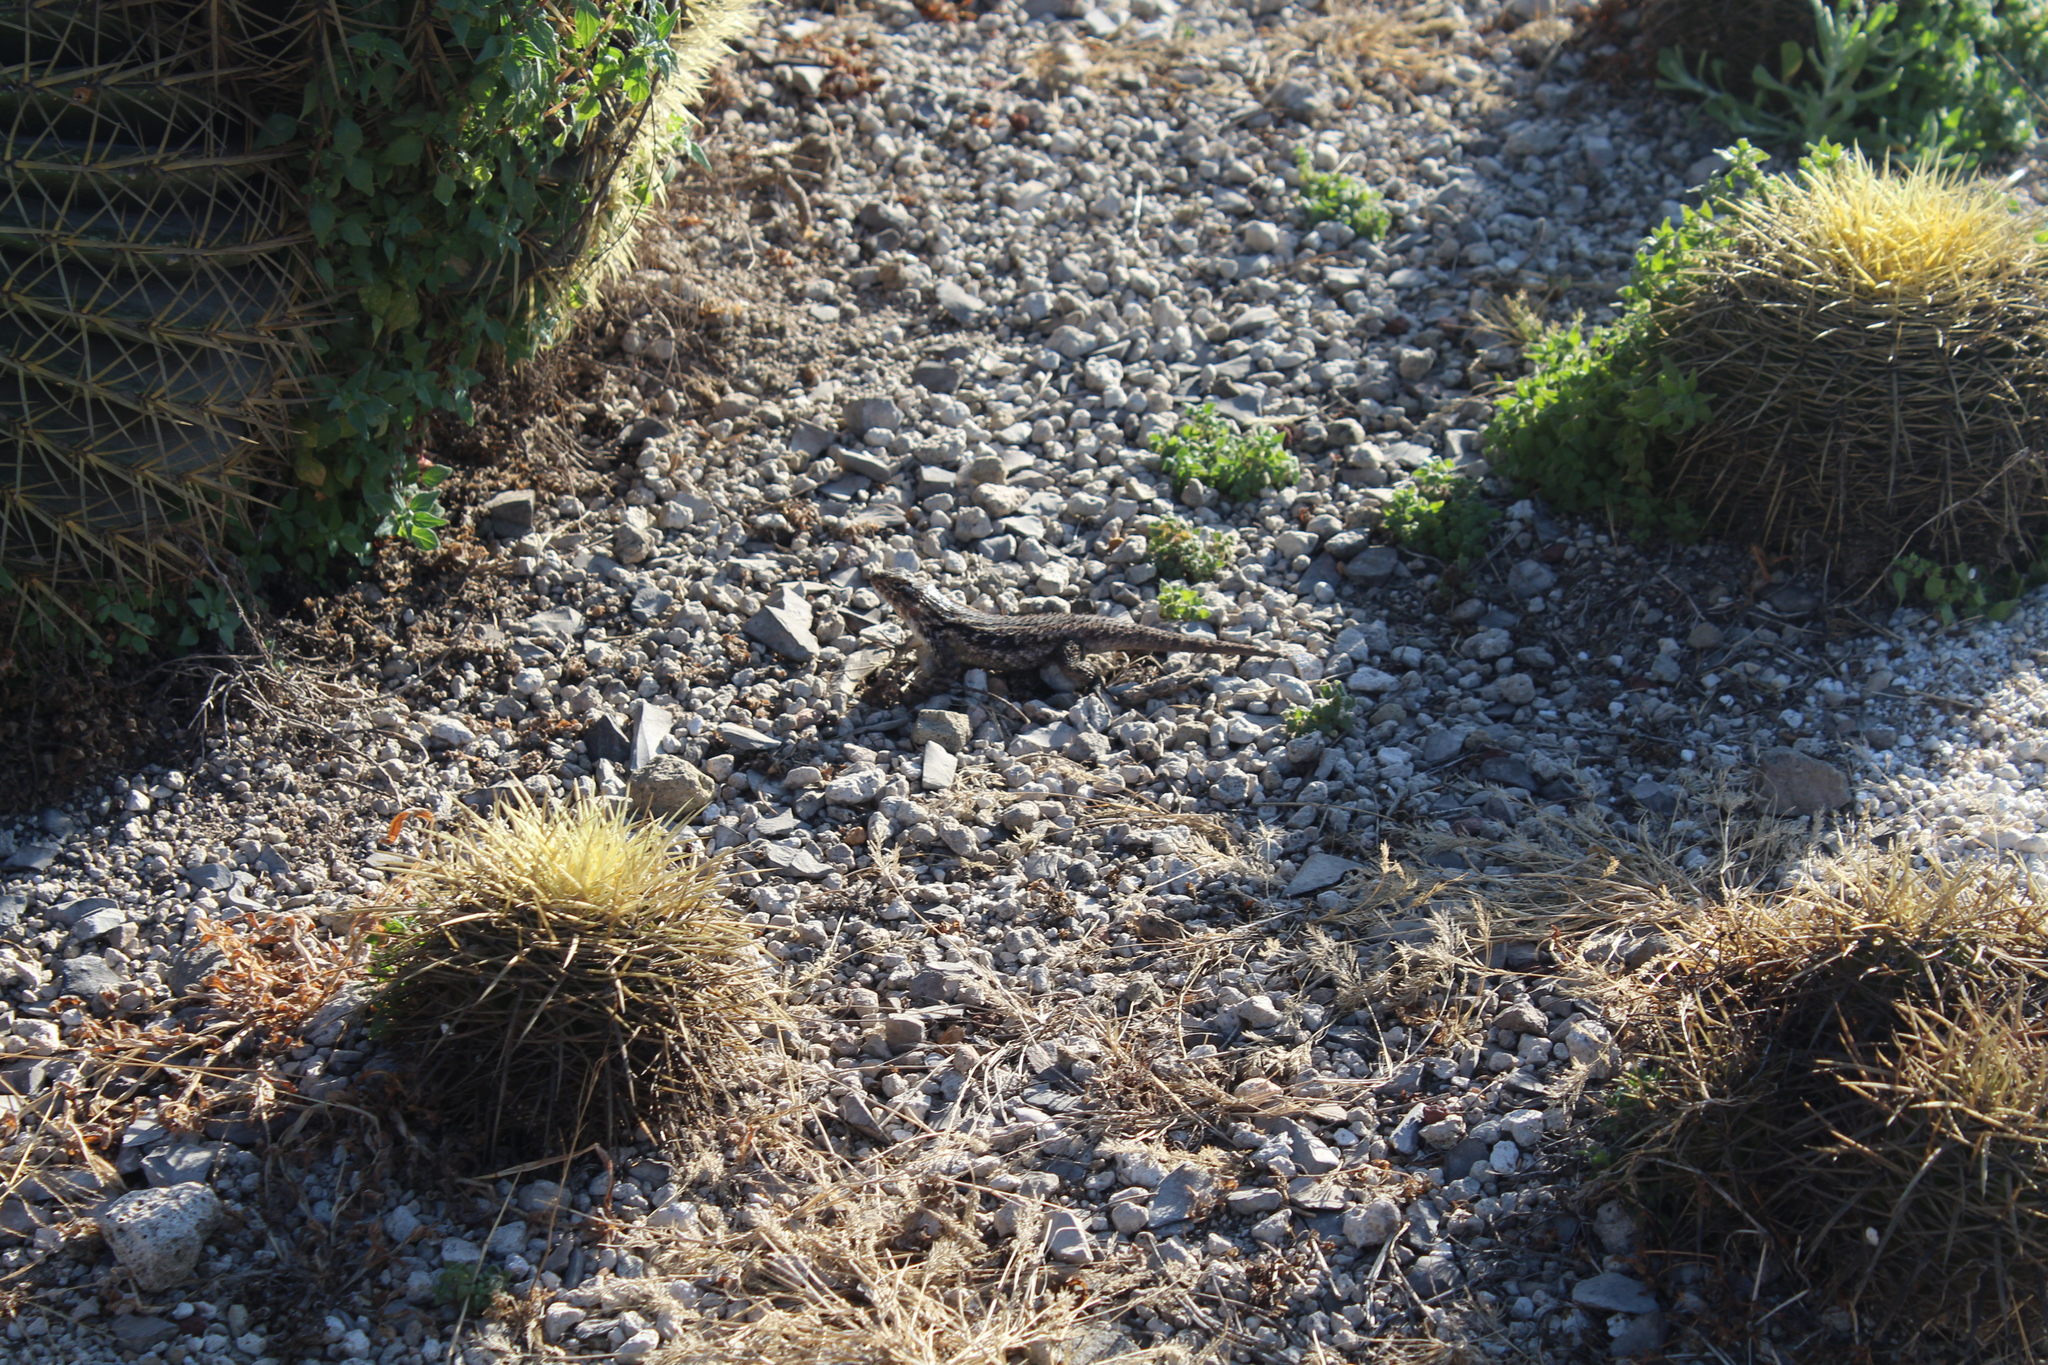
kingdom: Animalia
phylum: Chordata
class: Squamata
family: Phrynosomatidae
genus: Sceloporus
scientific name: Sceloporus spinosus
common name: Blue-spotted spiny lizard [caeruleopunctatus]
